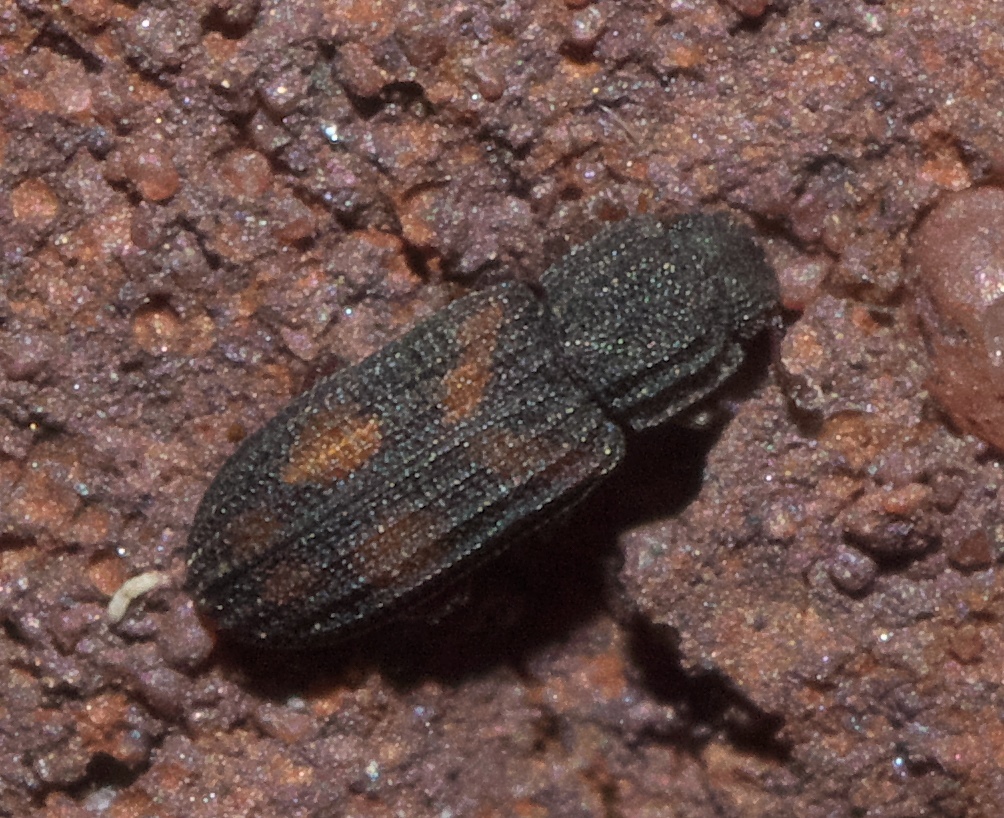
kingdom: Animalia
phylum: Arthropoda
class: Insecta
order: Coleoptera
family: Zopheridae
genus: Bitoma
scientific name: Bitoma quadriguttata
